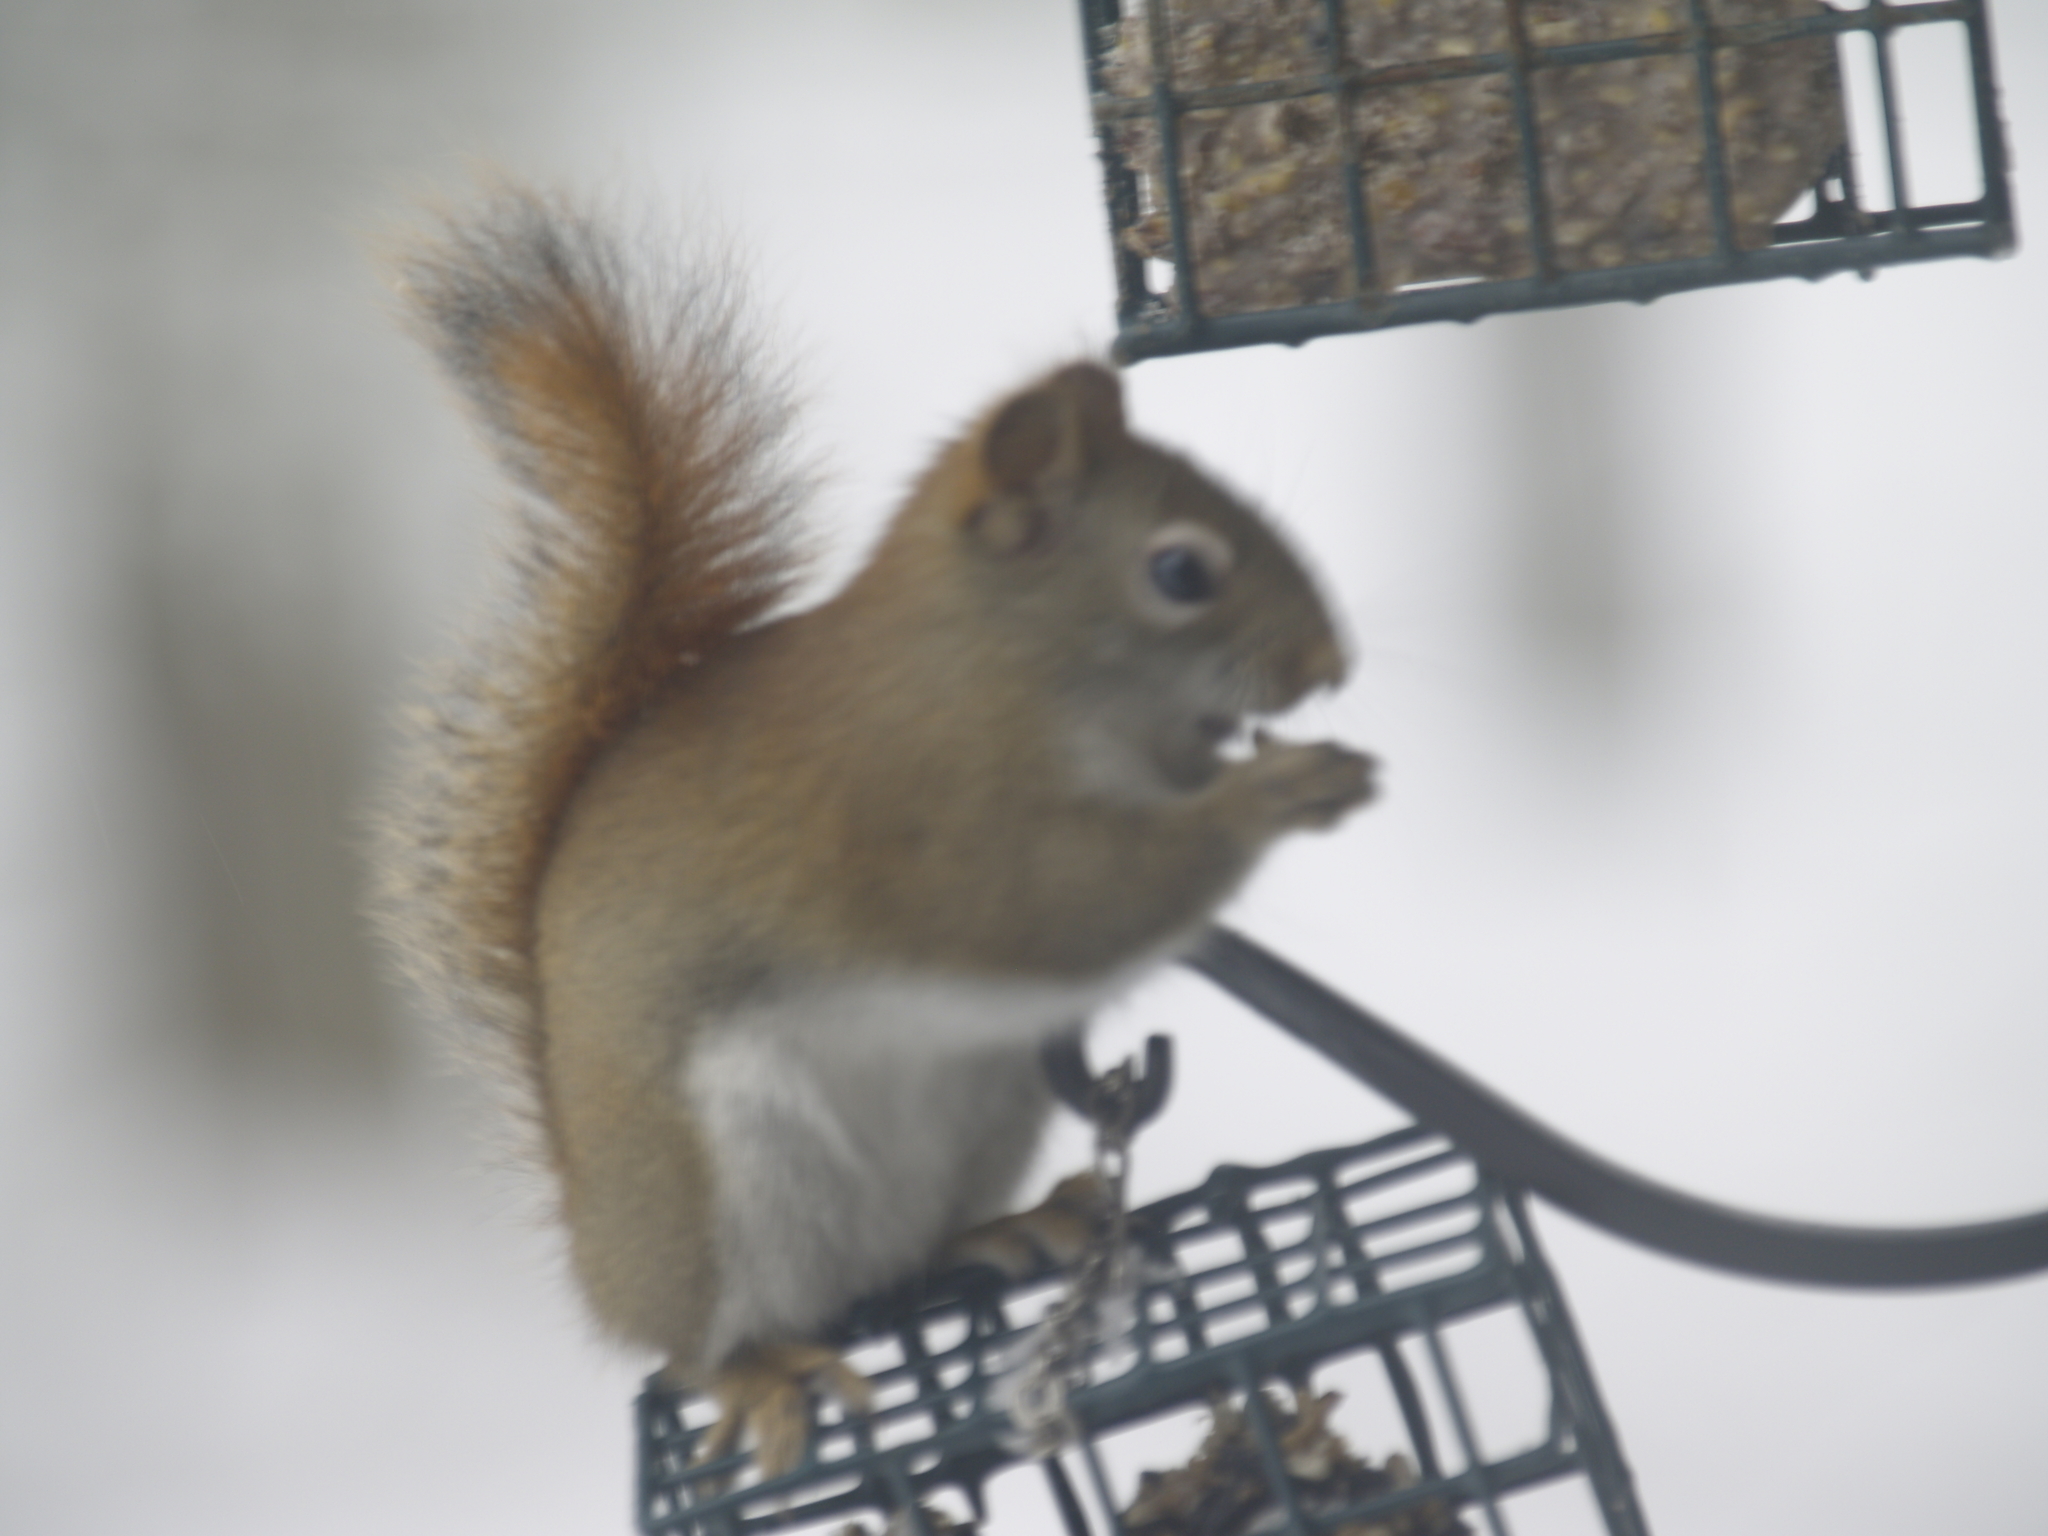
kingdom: Animalia
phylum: Chordata
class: Mammalia
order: Rodentia
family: Sciuridae
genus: Tamiasciurus
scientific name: Tamiasciurus hudsonicus
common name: Red squirrel
